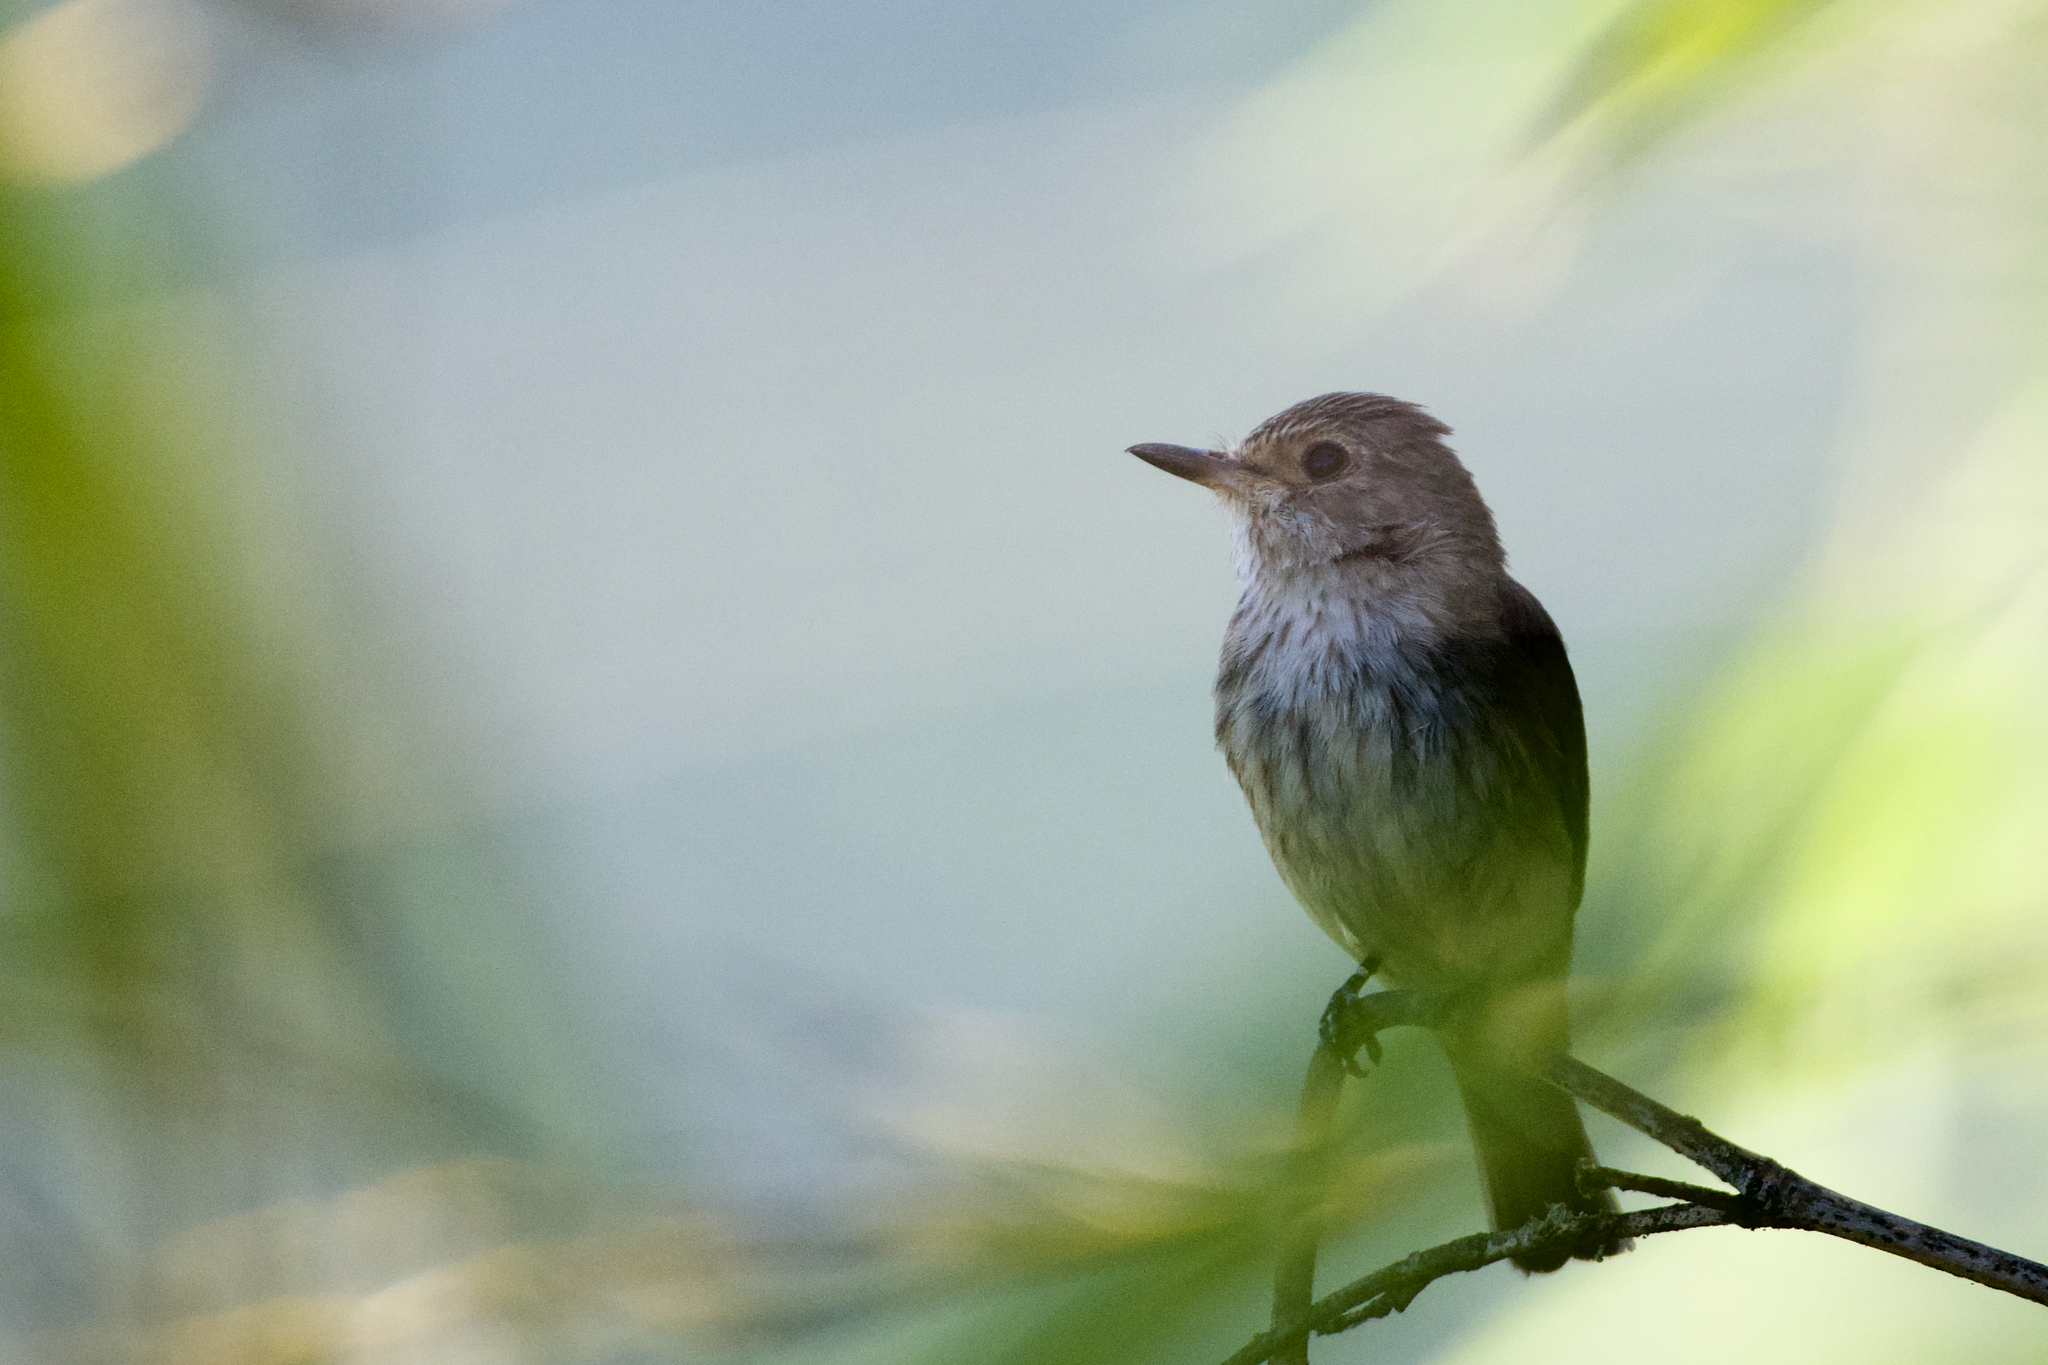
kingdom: Animalia
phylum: Chordata
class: Aves
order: Passeriformes
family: Muscicapidae
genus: Muscicapa
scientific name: Muscicapa striata
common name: Spotted flycatcher
